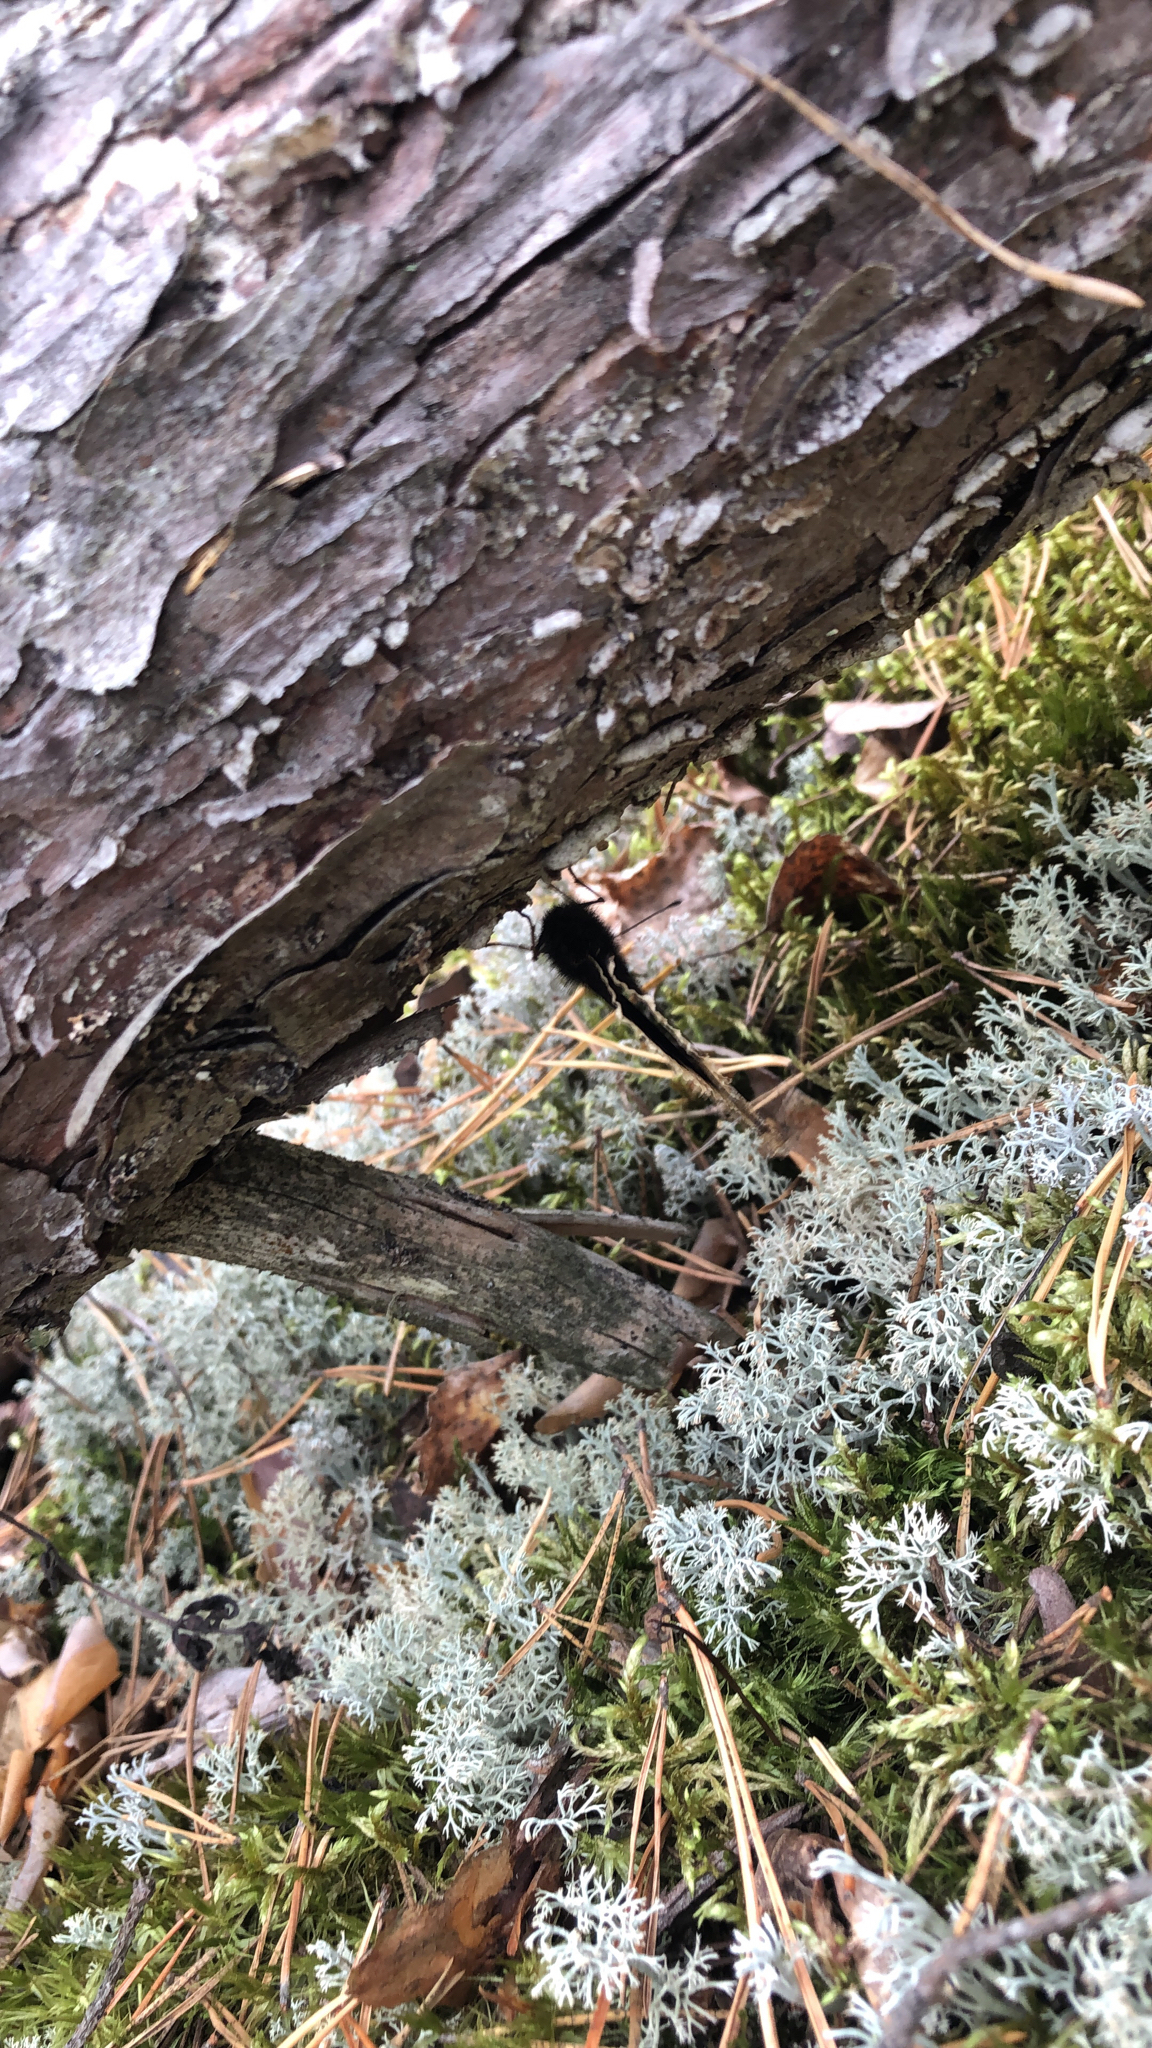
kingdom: Animalia
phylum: Arthropoda
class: Insecta
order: Lepidoptera
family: Nymphalidae
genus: Nymphalis
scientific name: Nymphalis antiopa
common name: Camberwell beauty
